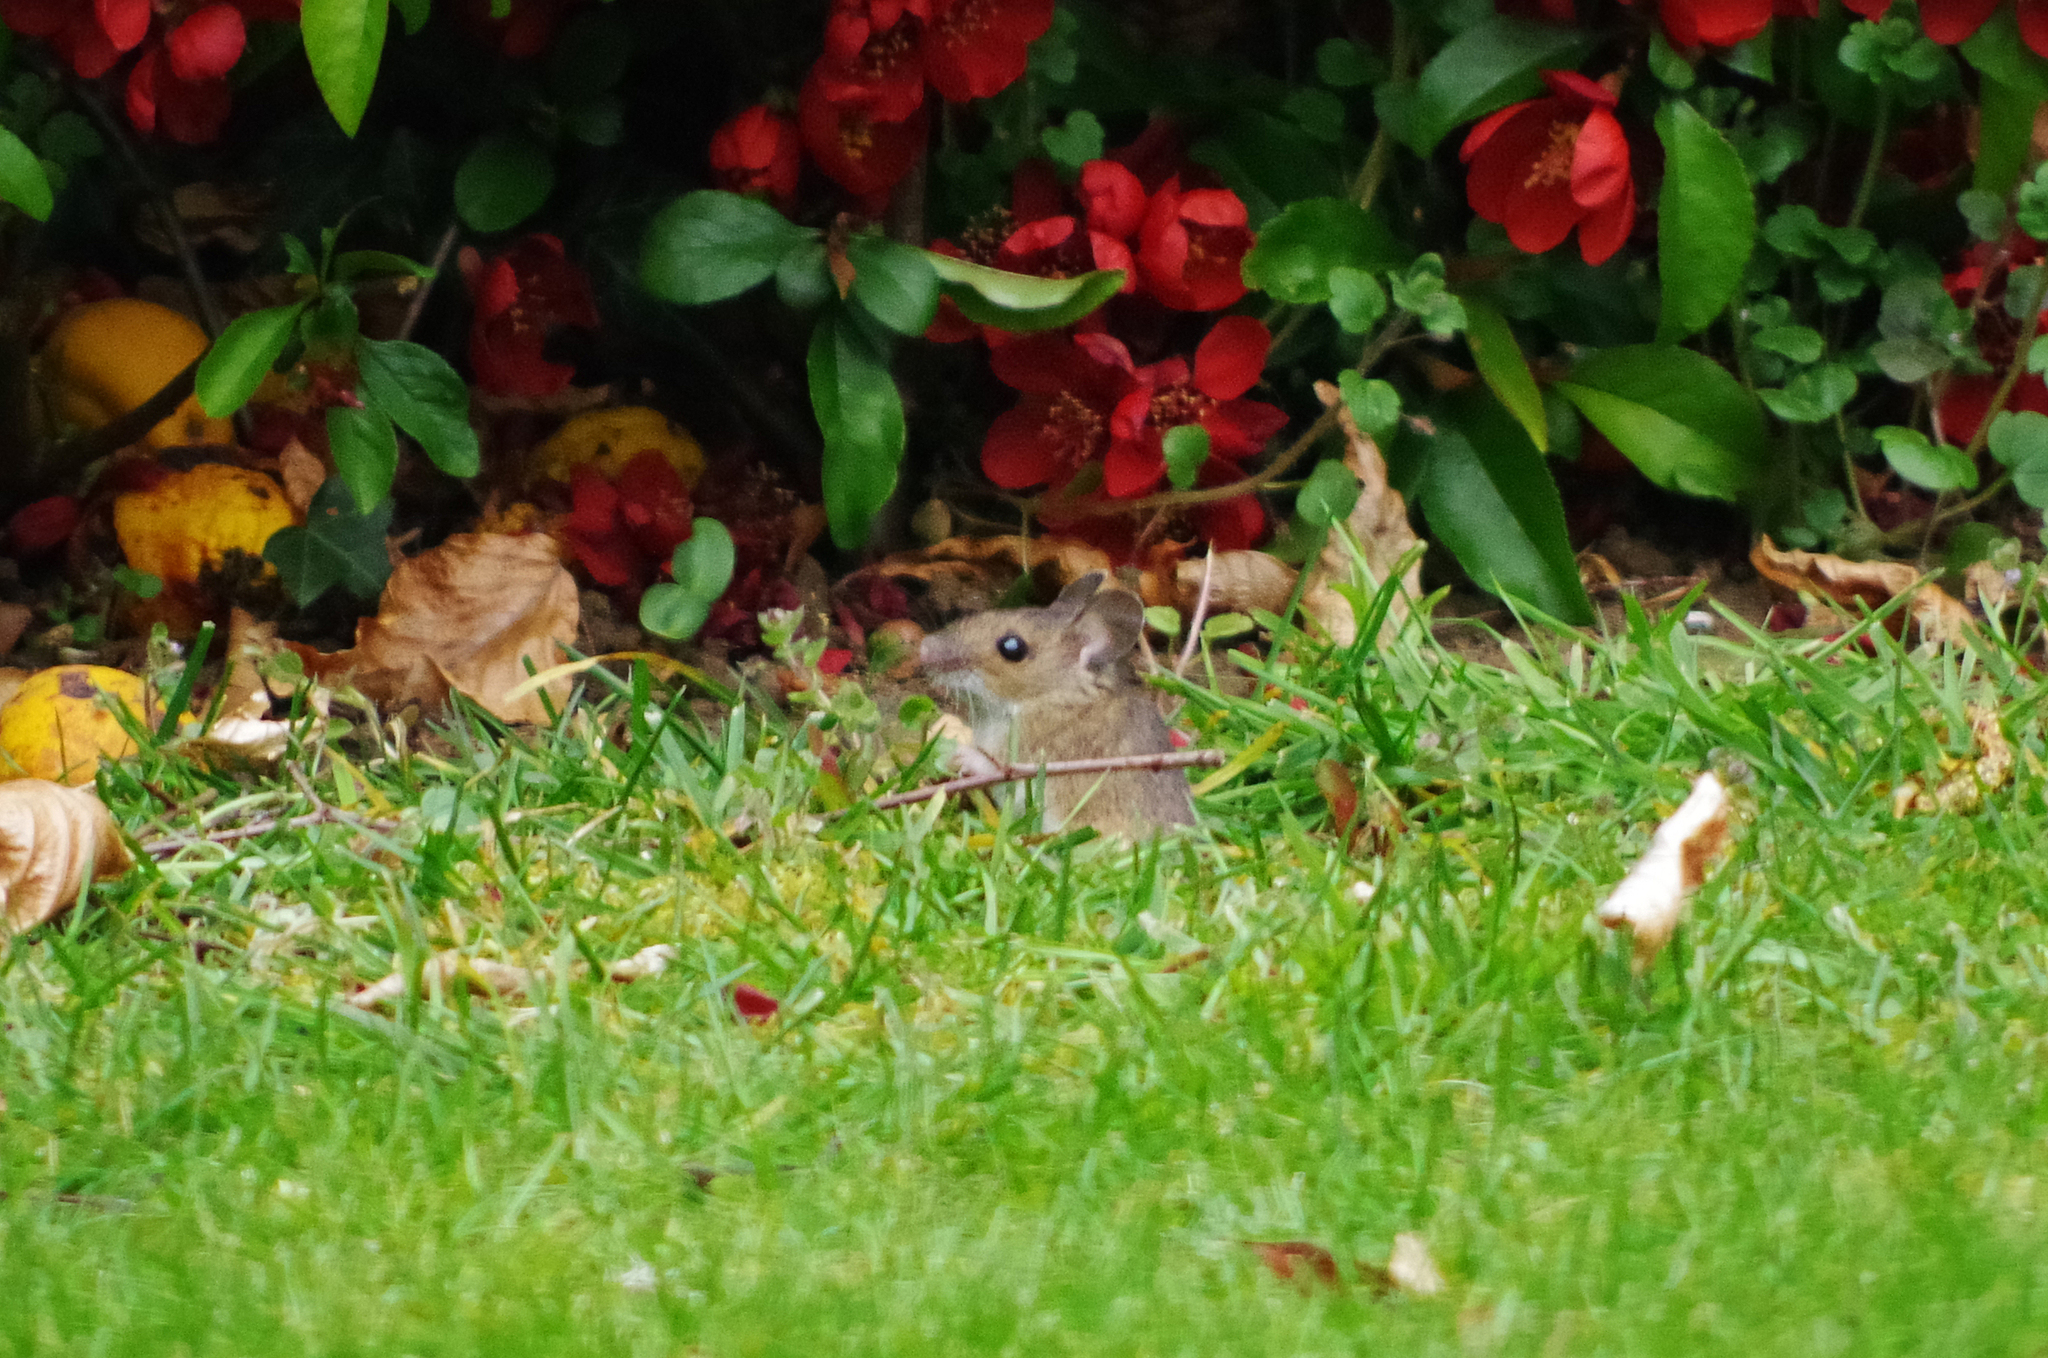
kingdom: Animalia
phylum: Chordata
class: Mammalia
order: Rodentia
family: Muridae
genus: Apodemus
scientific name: Apodemus sylvaticus
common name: Wood mouse
